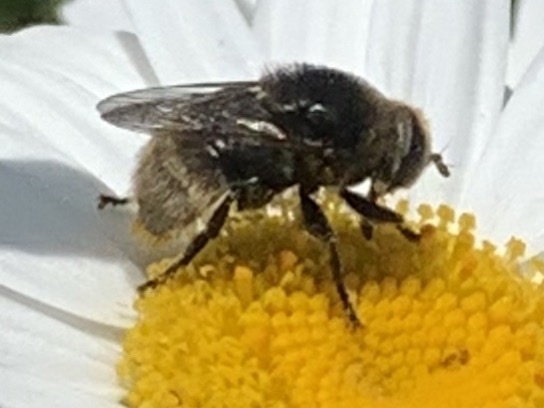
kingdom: Animalia
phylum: Arthropoda
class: Insecta
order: Diptera
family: Syrphidae
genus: Merodon
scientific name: Merodon equestris
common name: Greater bulb-fly
